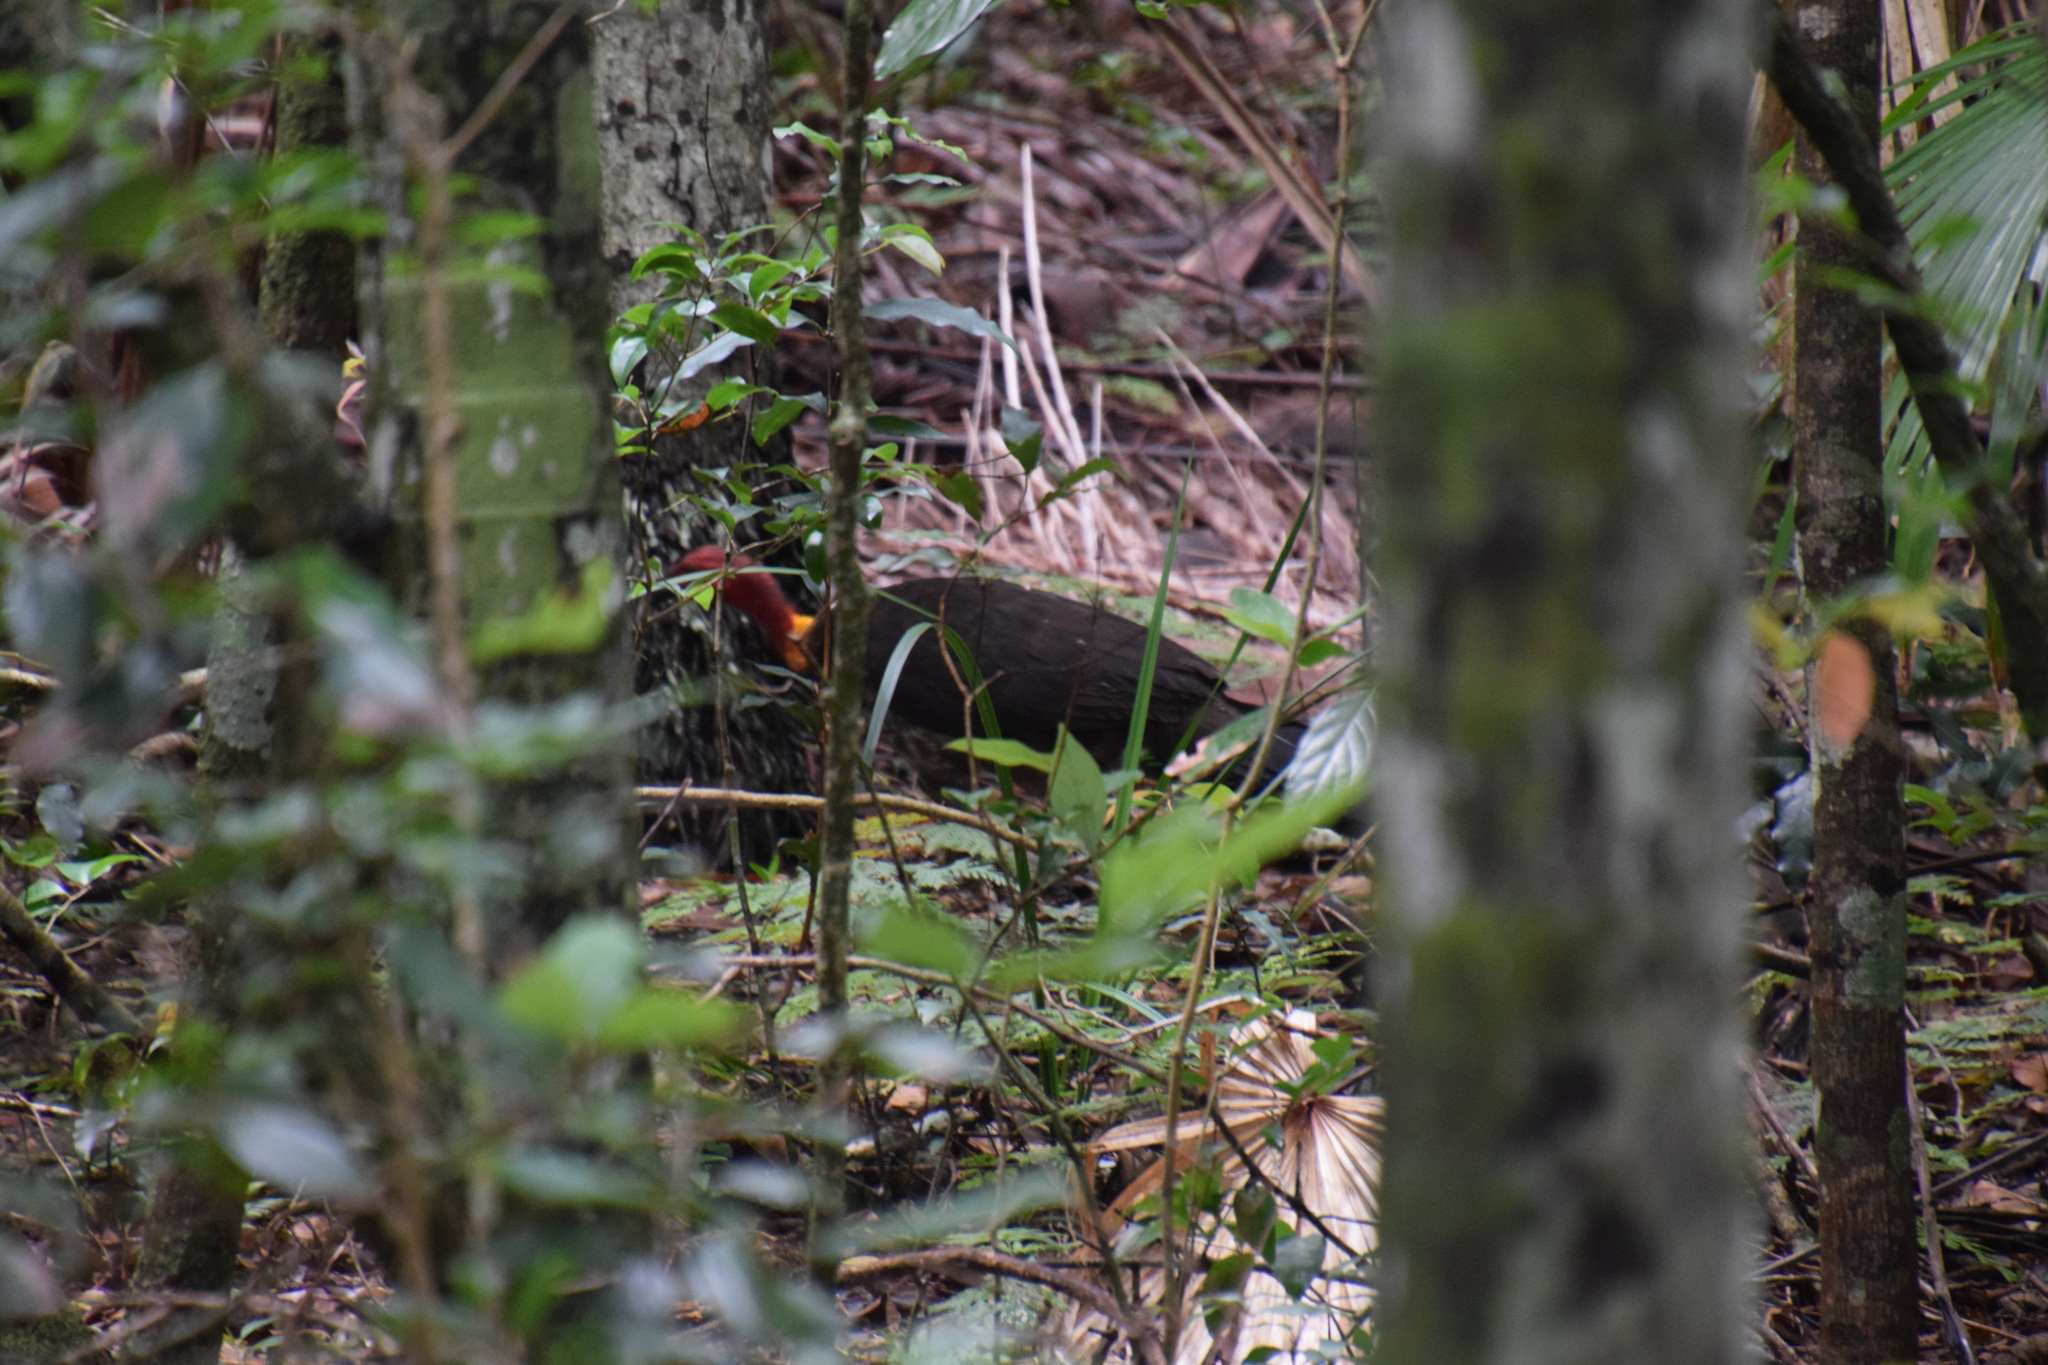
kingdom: Animalia
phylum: Chordata
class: Aves
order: Galliformes
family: Megapodiidae
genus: Alectura
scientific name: Alectura lathami
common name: Australian brushturkey
